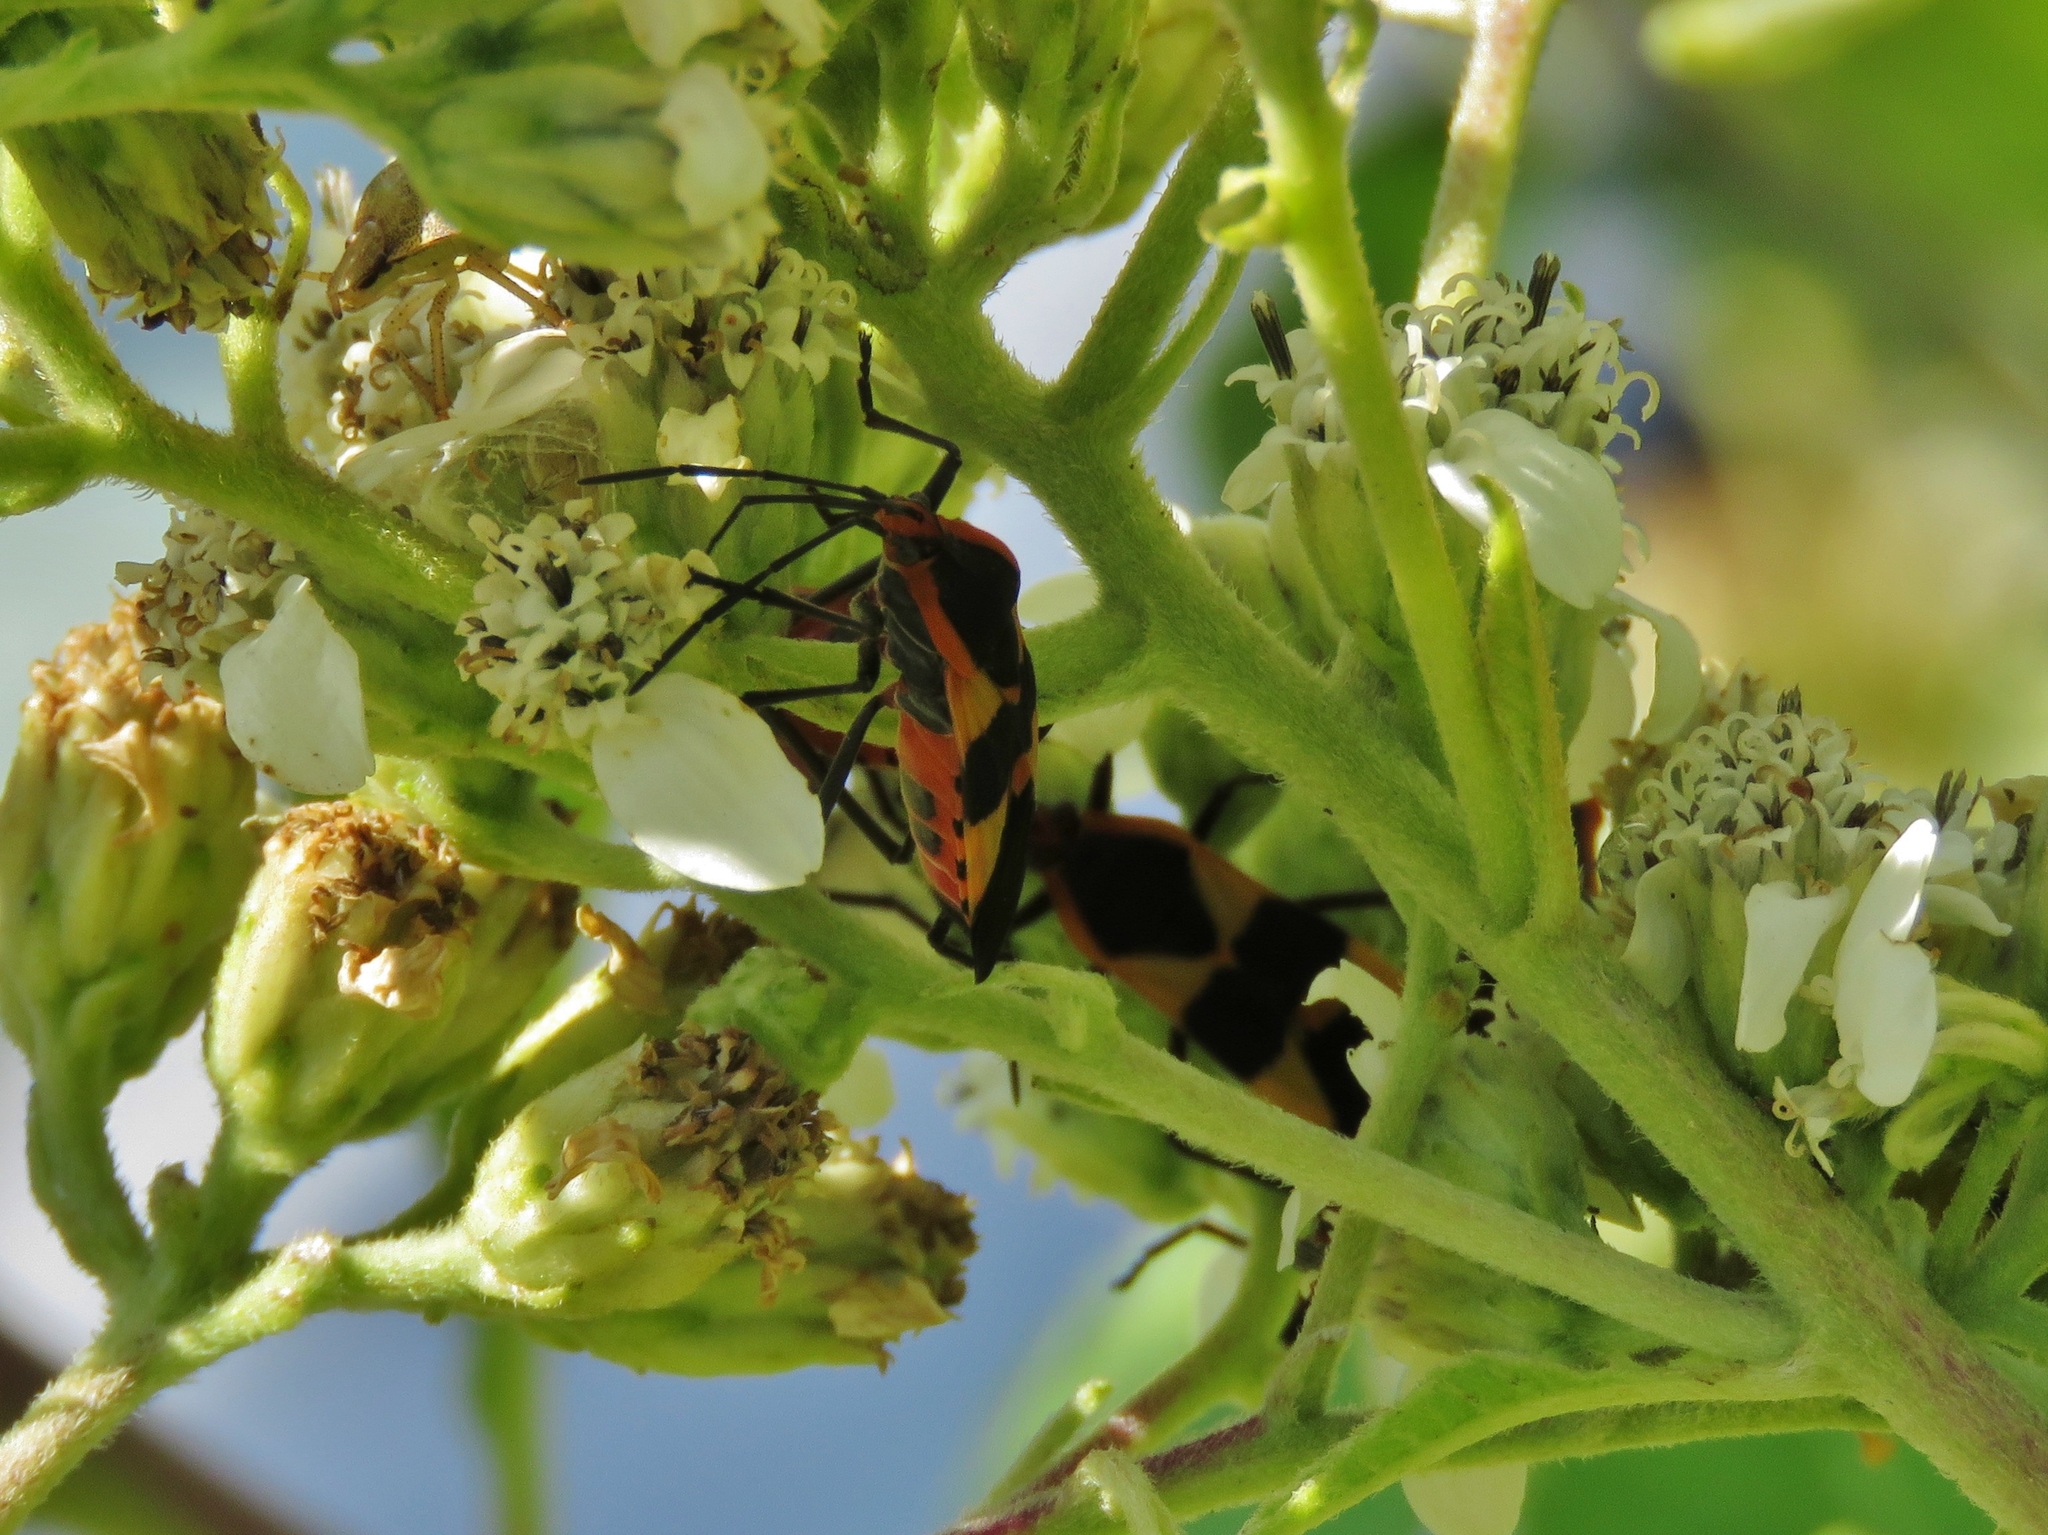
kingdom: Animalia
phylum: Arthropoda
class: Insecta
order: Hemiptera
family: Lygaeidae
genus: Oncopeltus
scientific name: Oncopeltus fasciatus
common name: Large milkweed bug
